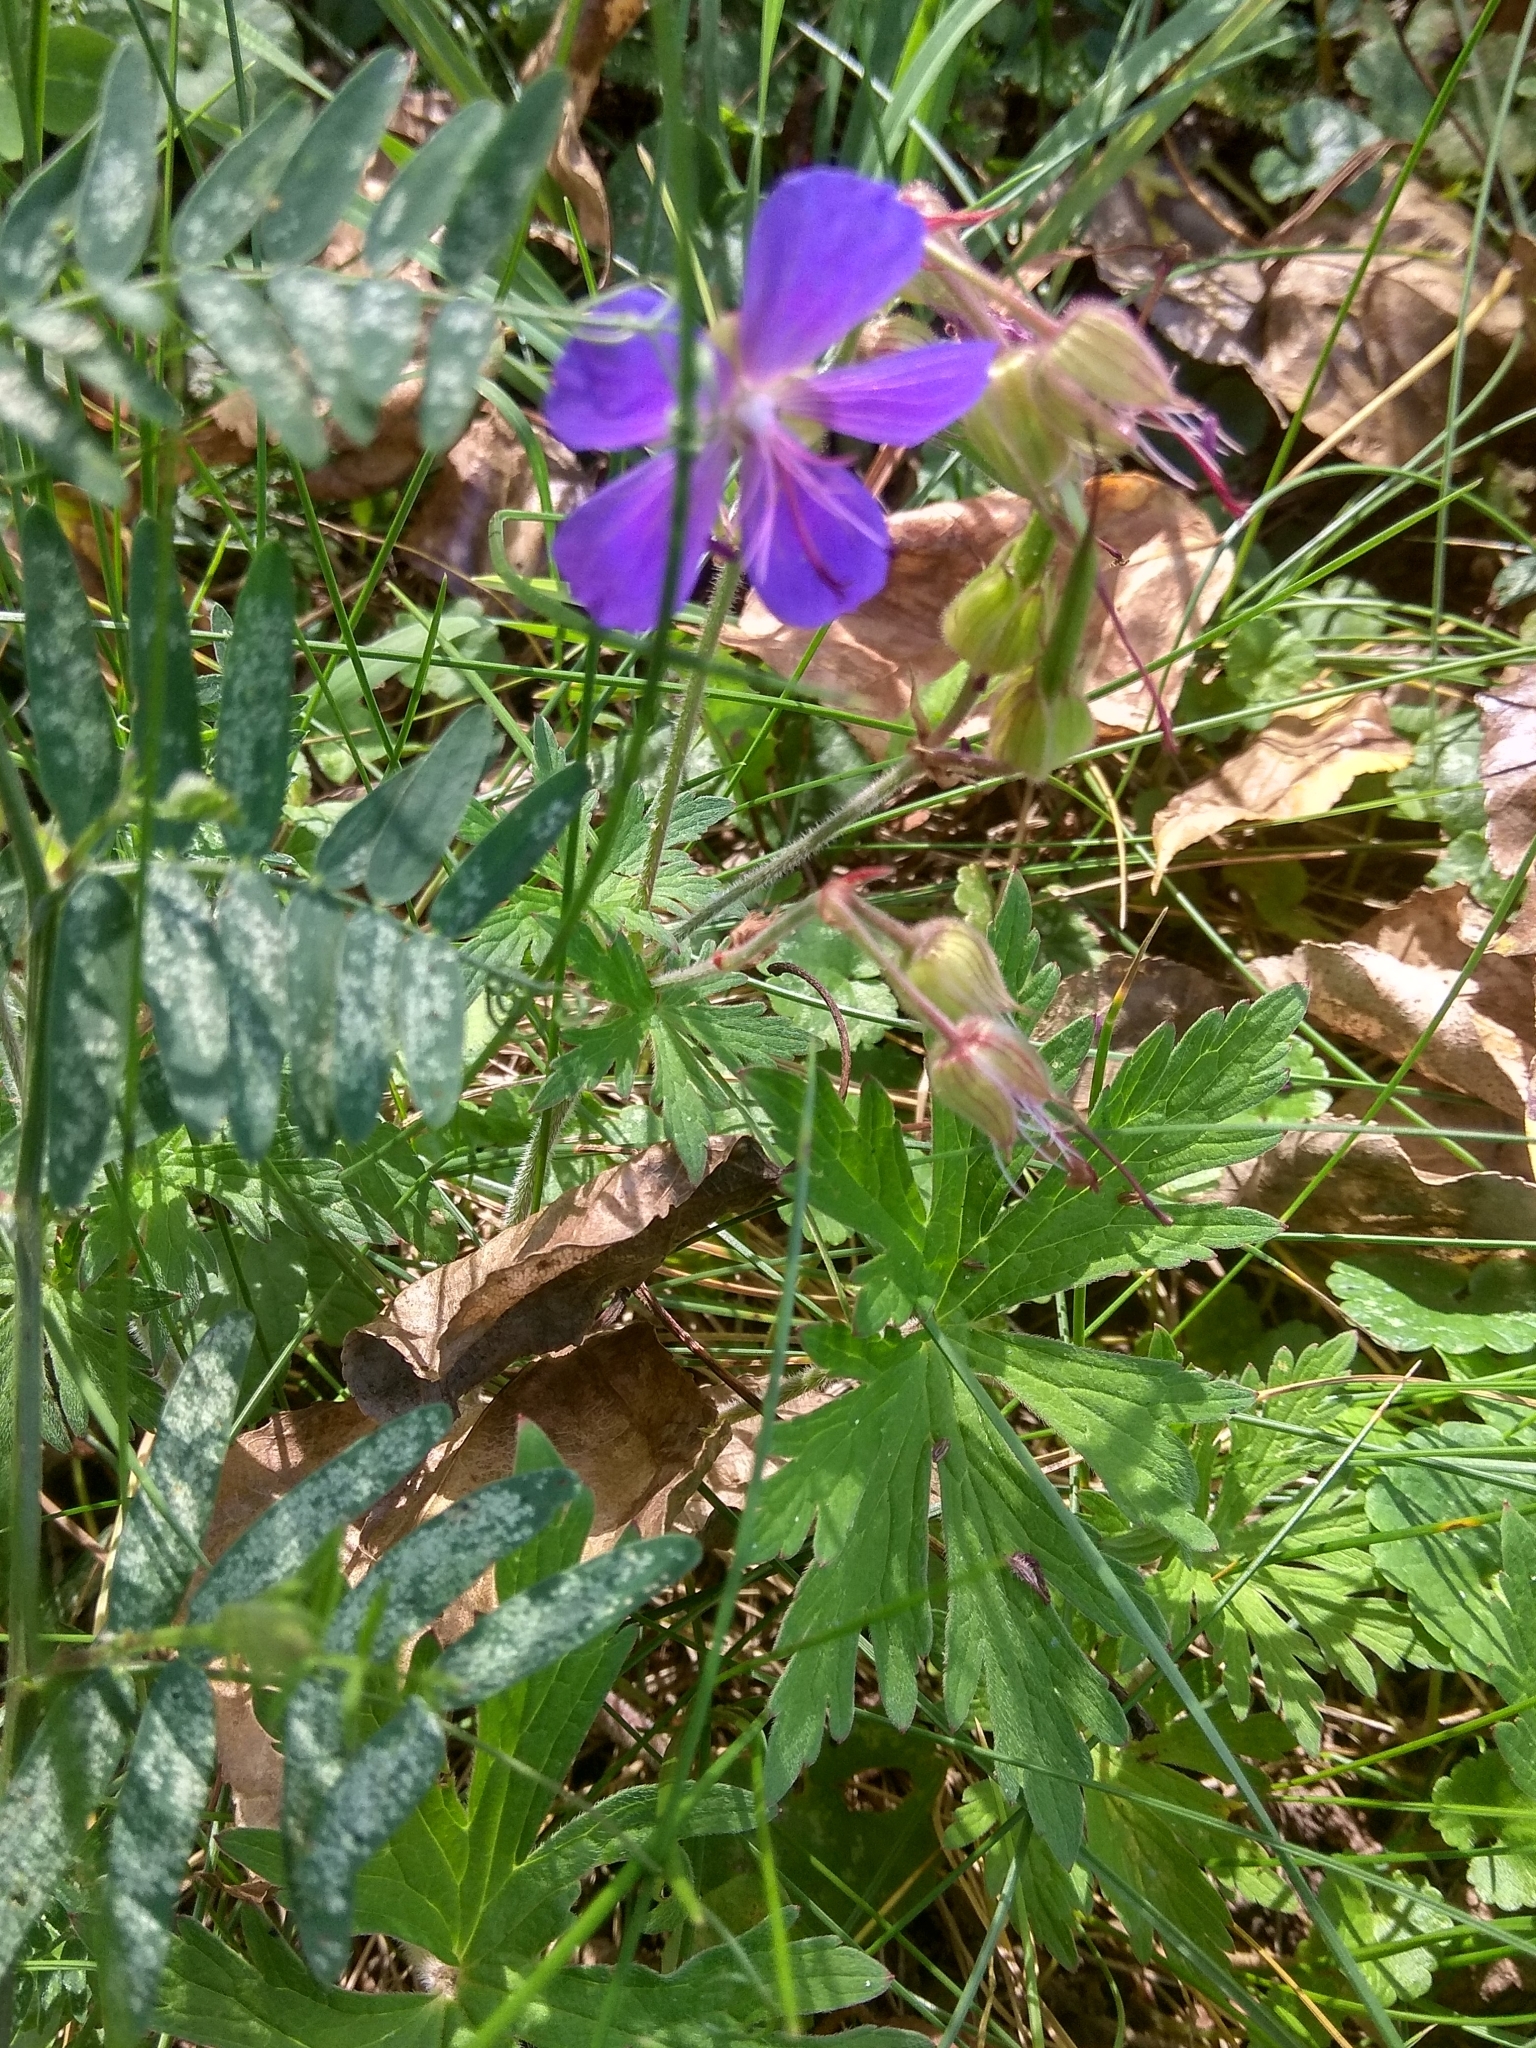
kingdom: Plantae
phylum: Tracheophyta
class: Magnoliopsida
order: Geraniales
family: Geraniaceae
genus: Geranium
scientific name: Geranium pratense
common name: Meadow crane's-bill
